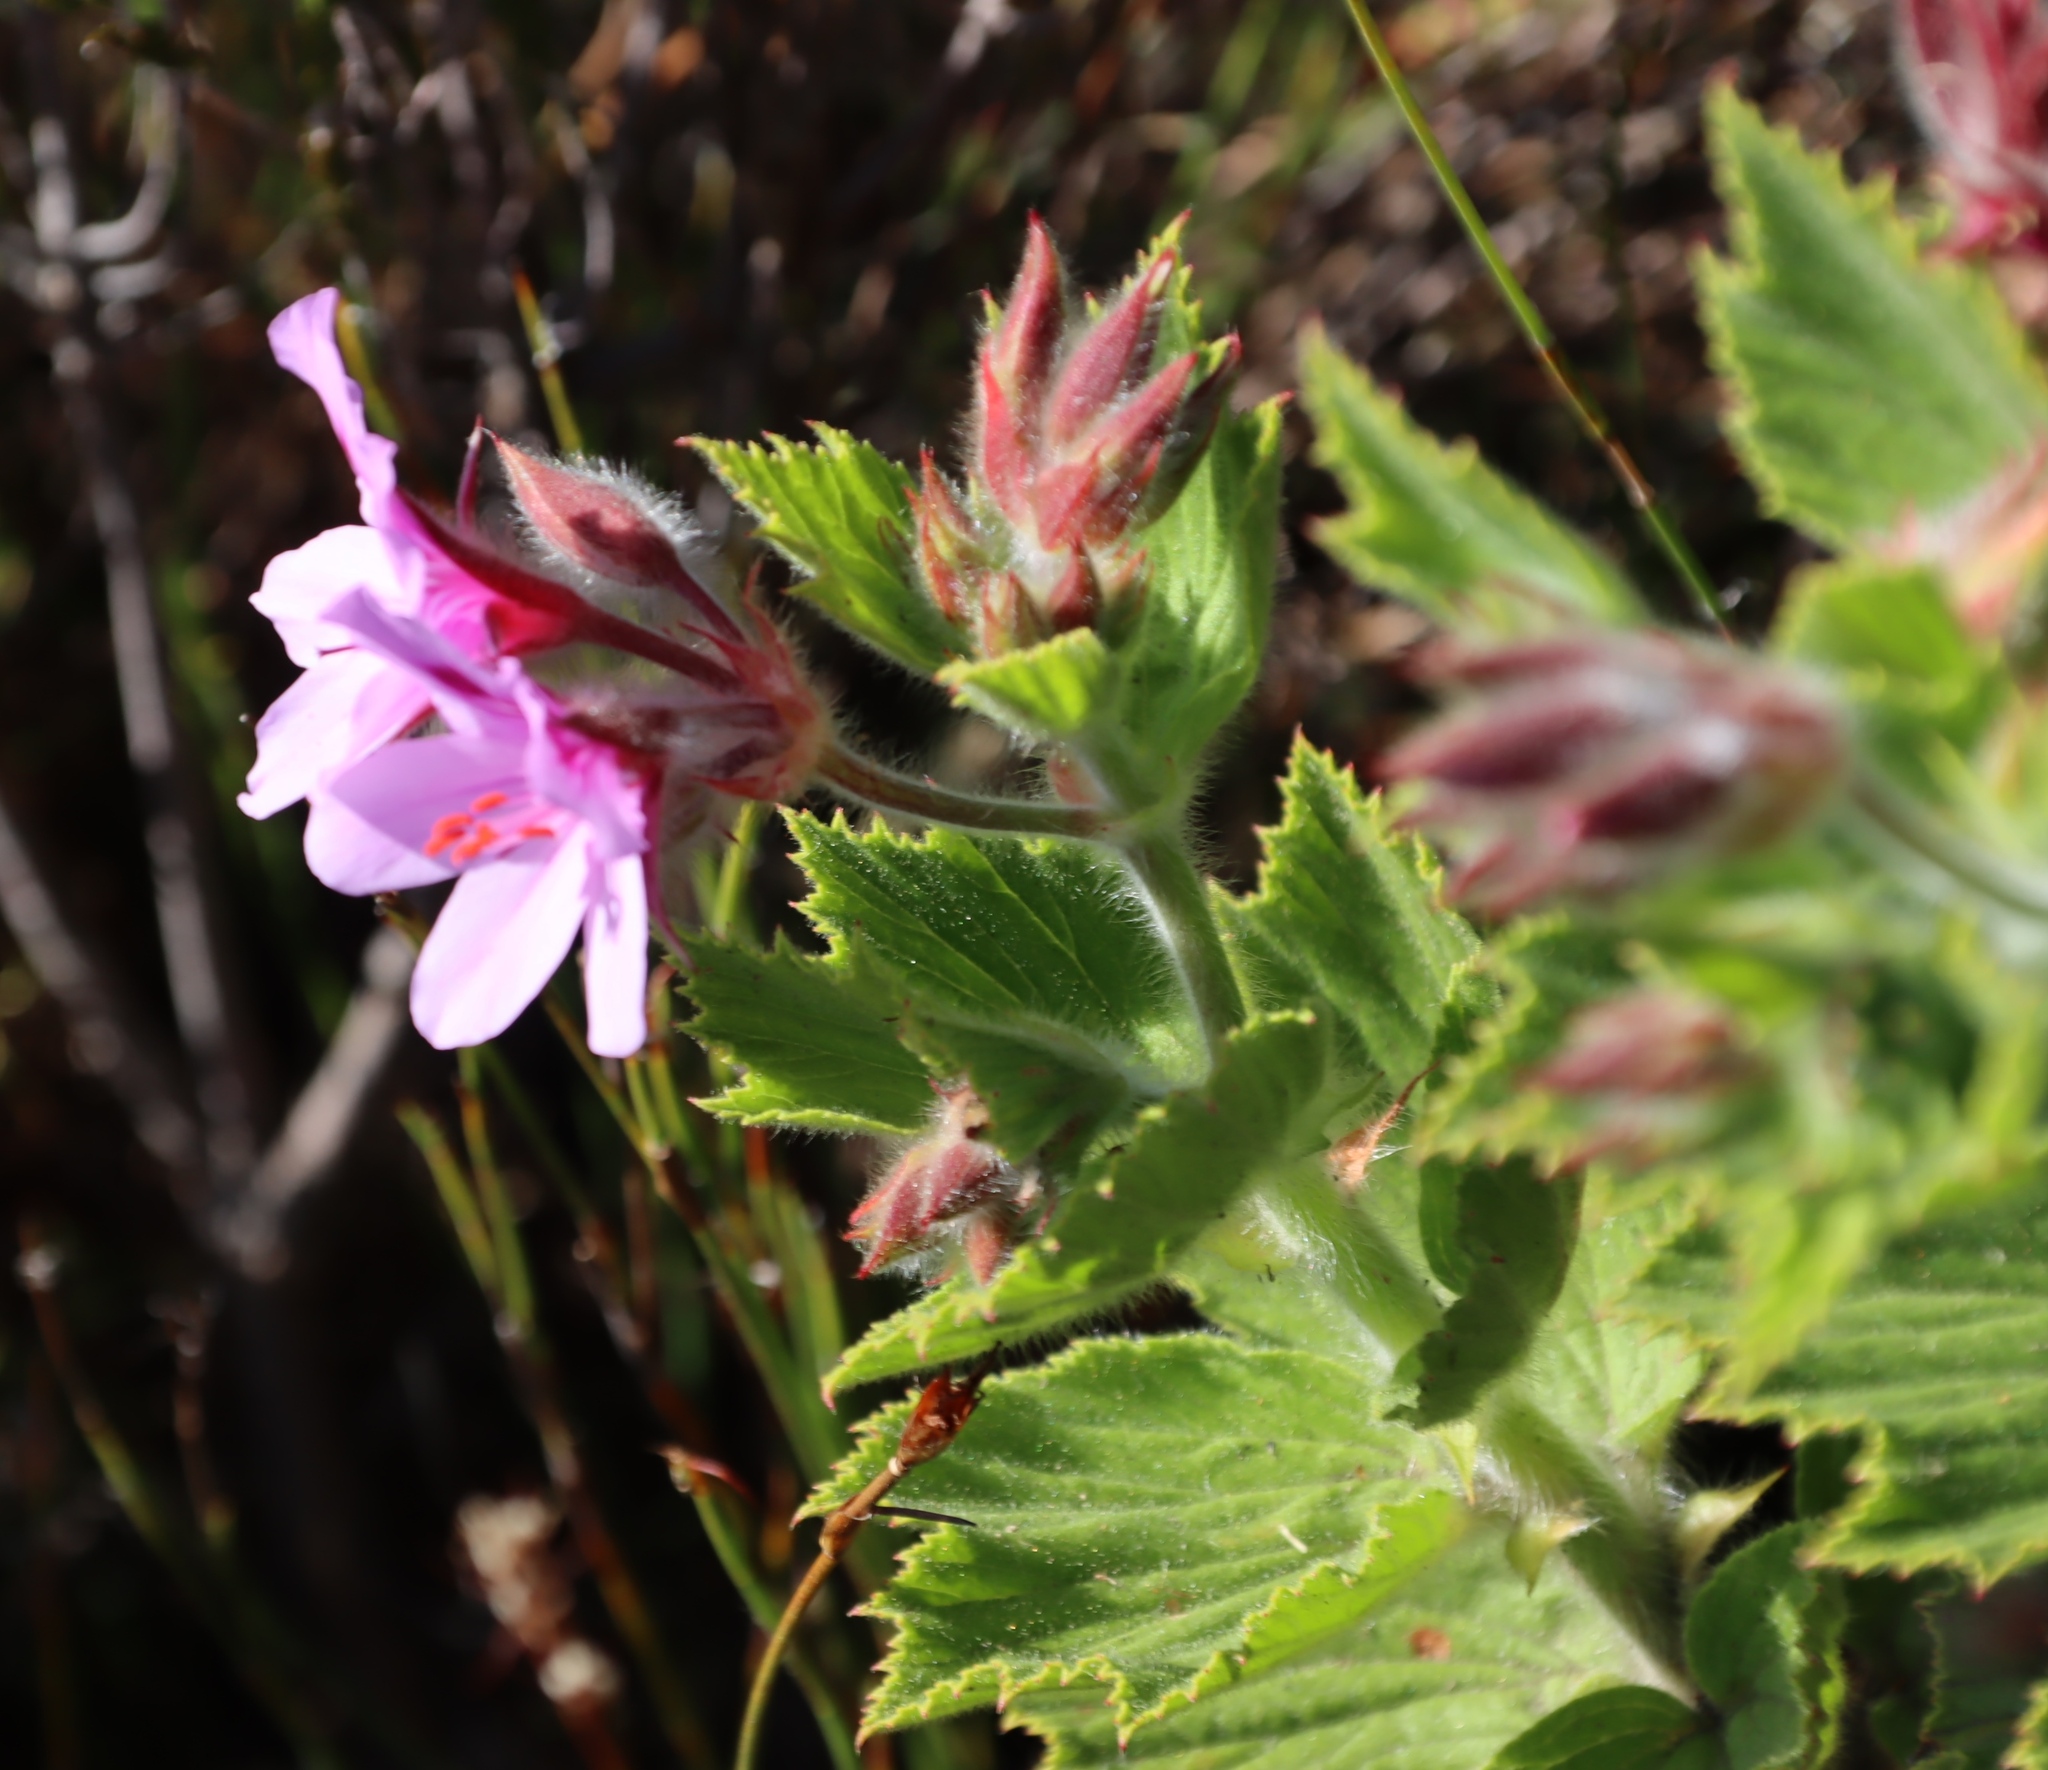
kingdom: Plantae
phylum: Tracheophyta
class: Magnoliopsida
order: Geraniales
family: Geraniaceae
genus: Pelargonium
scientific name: Pelargonium cucullatum
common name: Tree pelargonium
